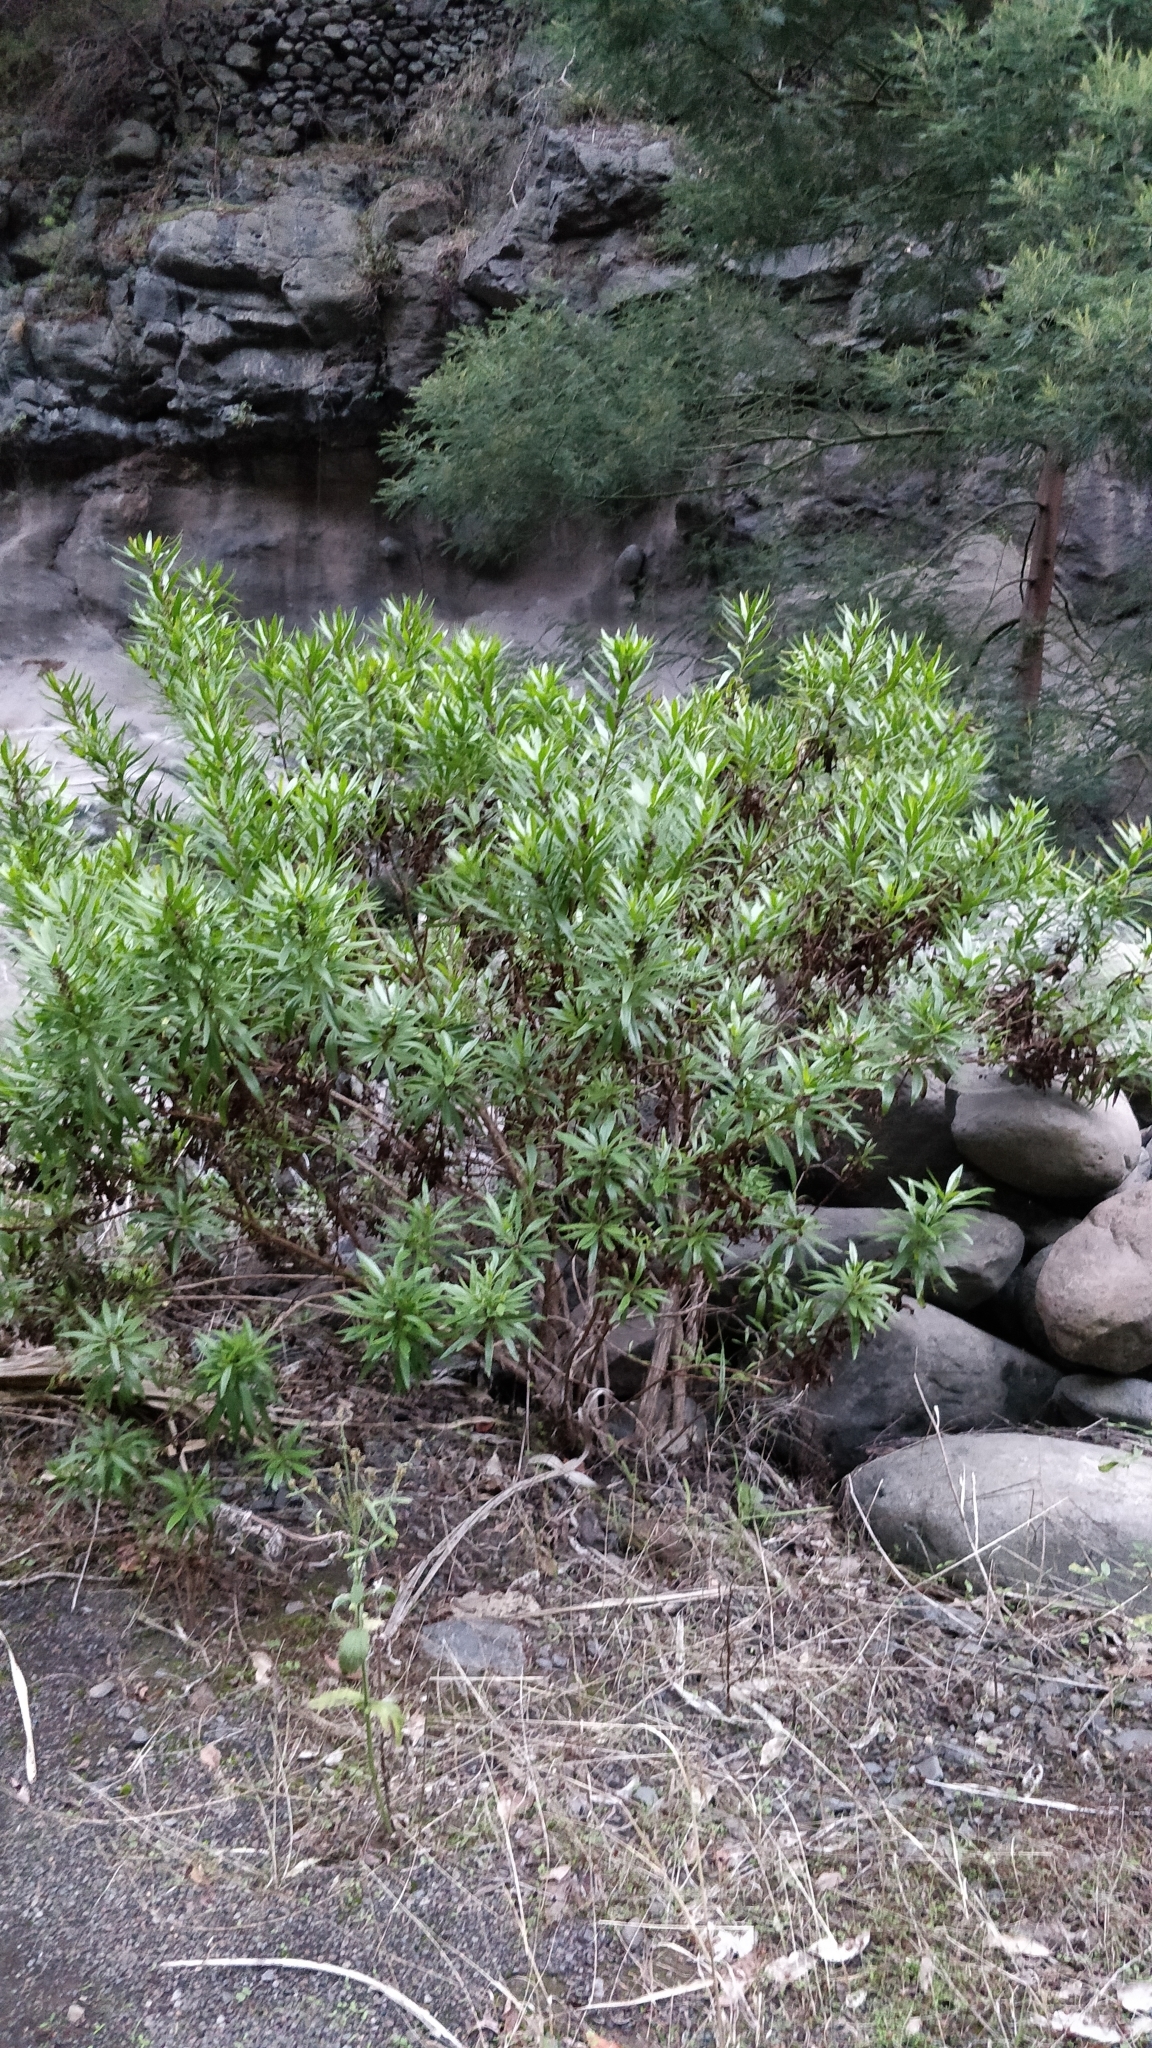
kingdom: Plantae
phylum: Tracheophyta
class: Magnoliopsida
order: Lamiales
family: Plantaginaceae
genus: Globularia
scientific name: Globularia salicina
